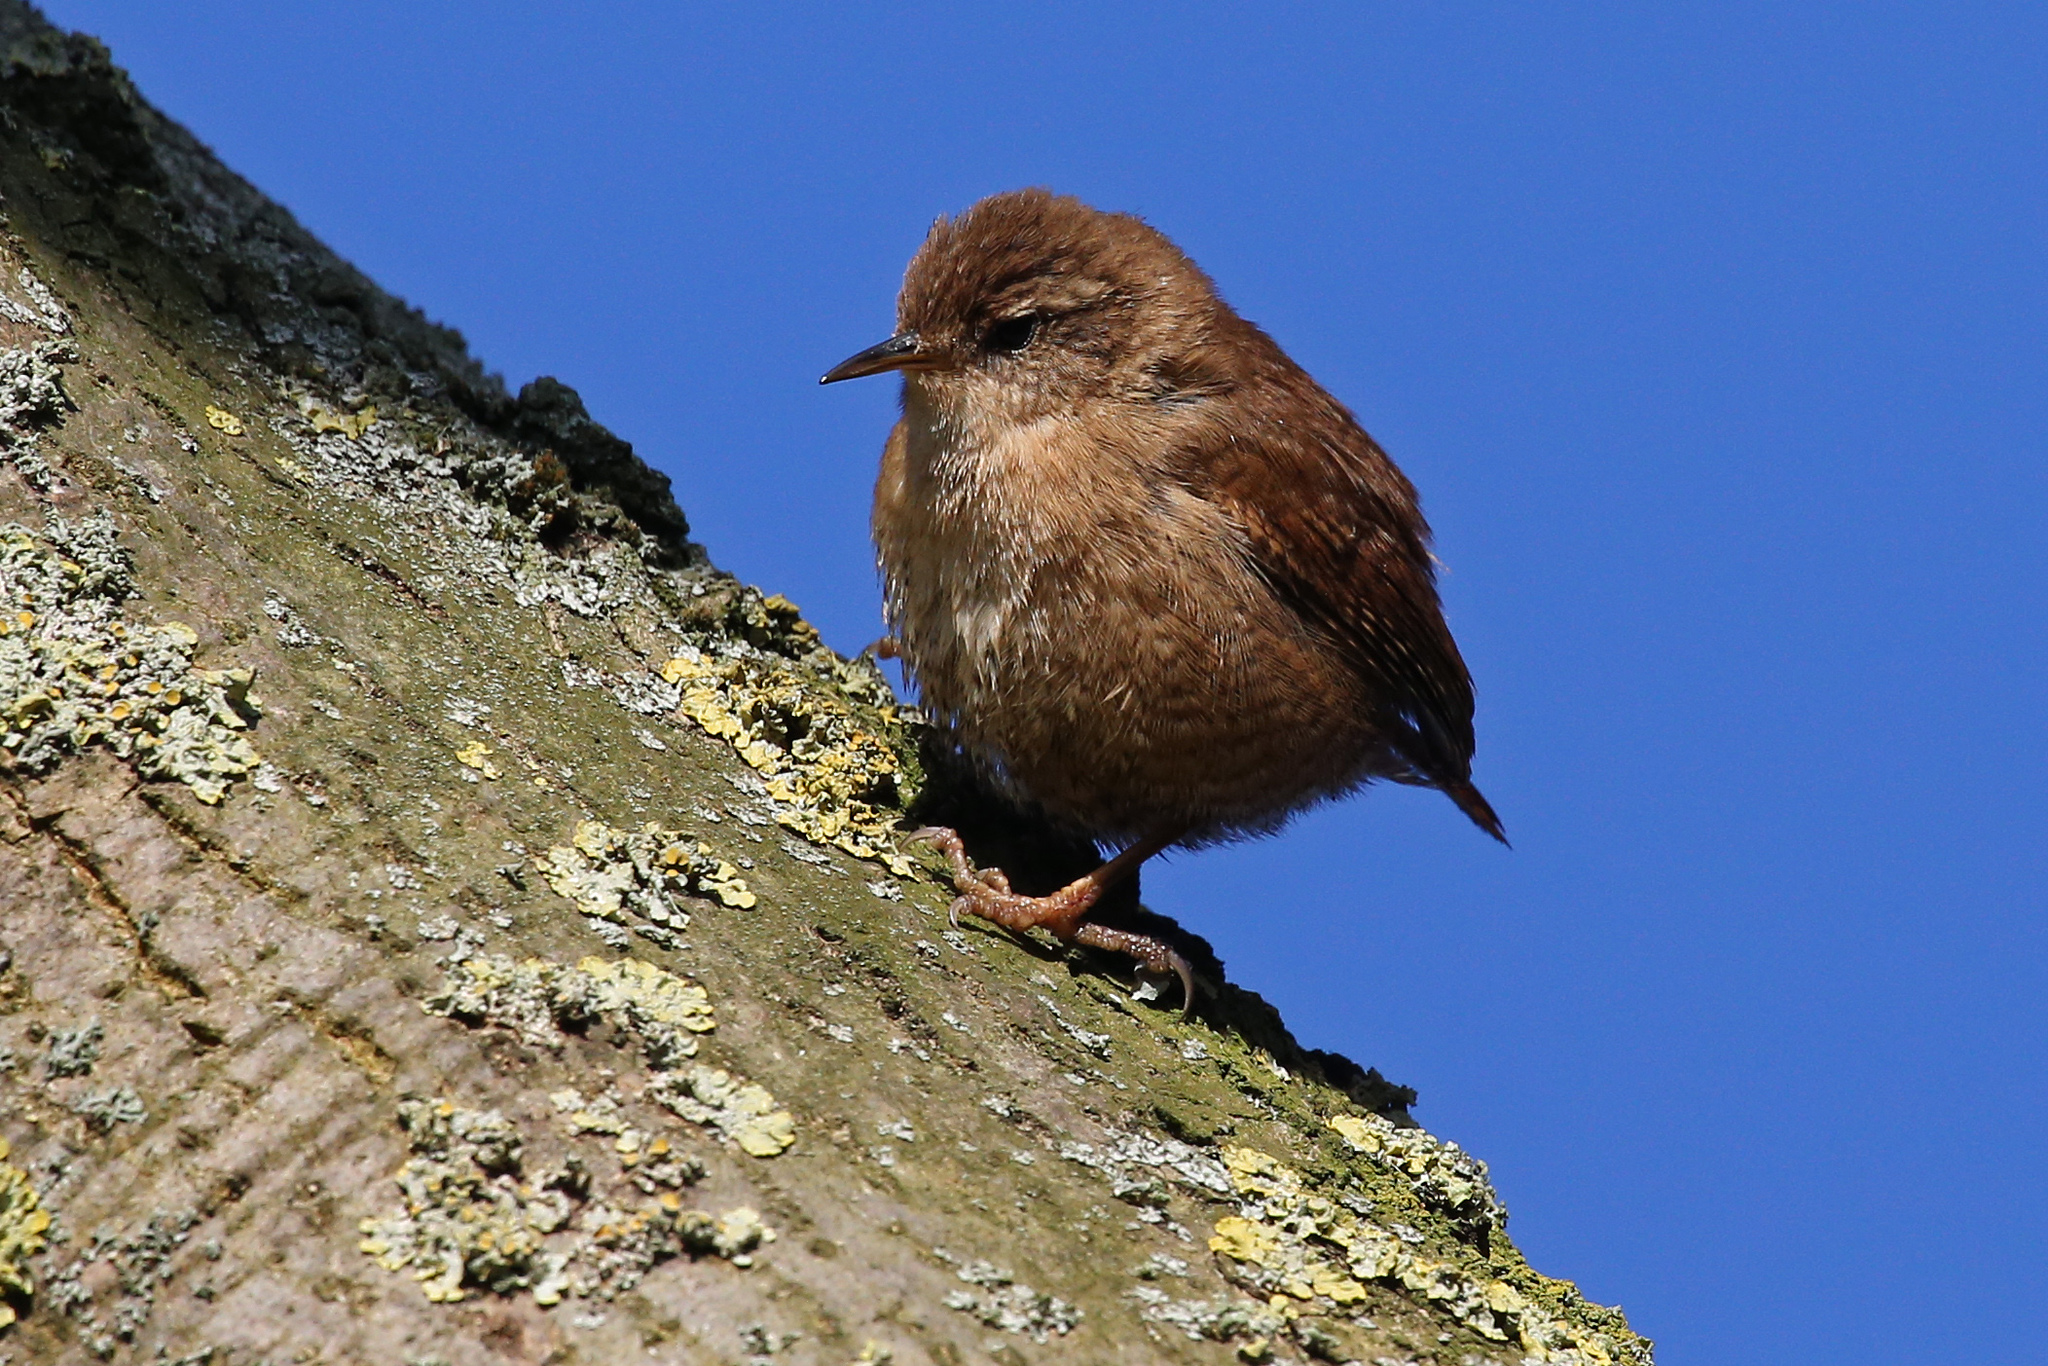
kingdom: Animalia
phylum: Chordata
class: Aves
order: Passeriformes
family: Troglodytidae
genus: Troglodytes
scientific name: Troglodytes troglodytes
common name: Eurasian wren
